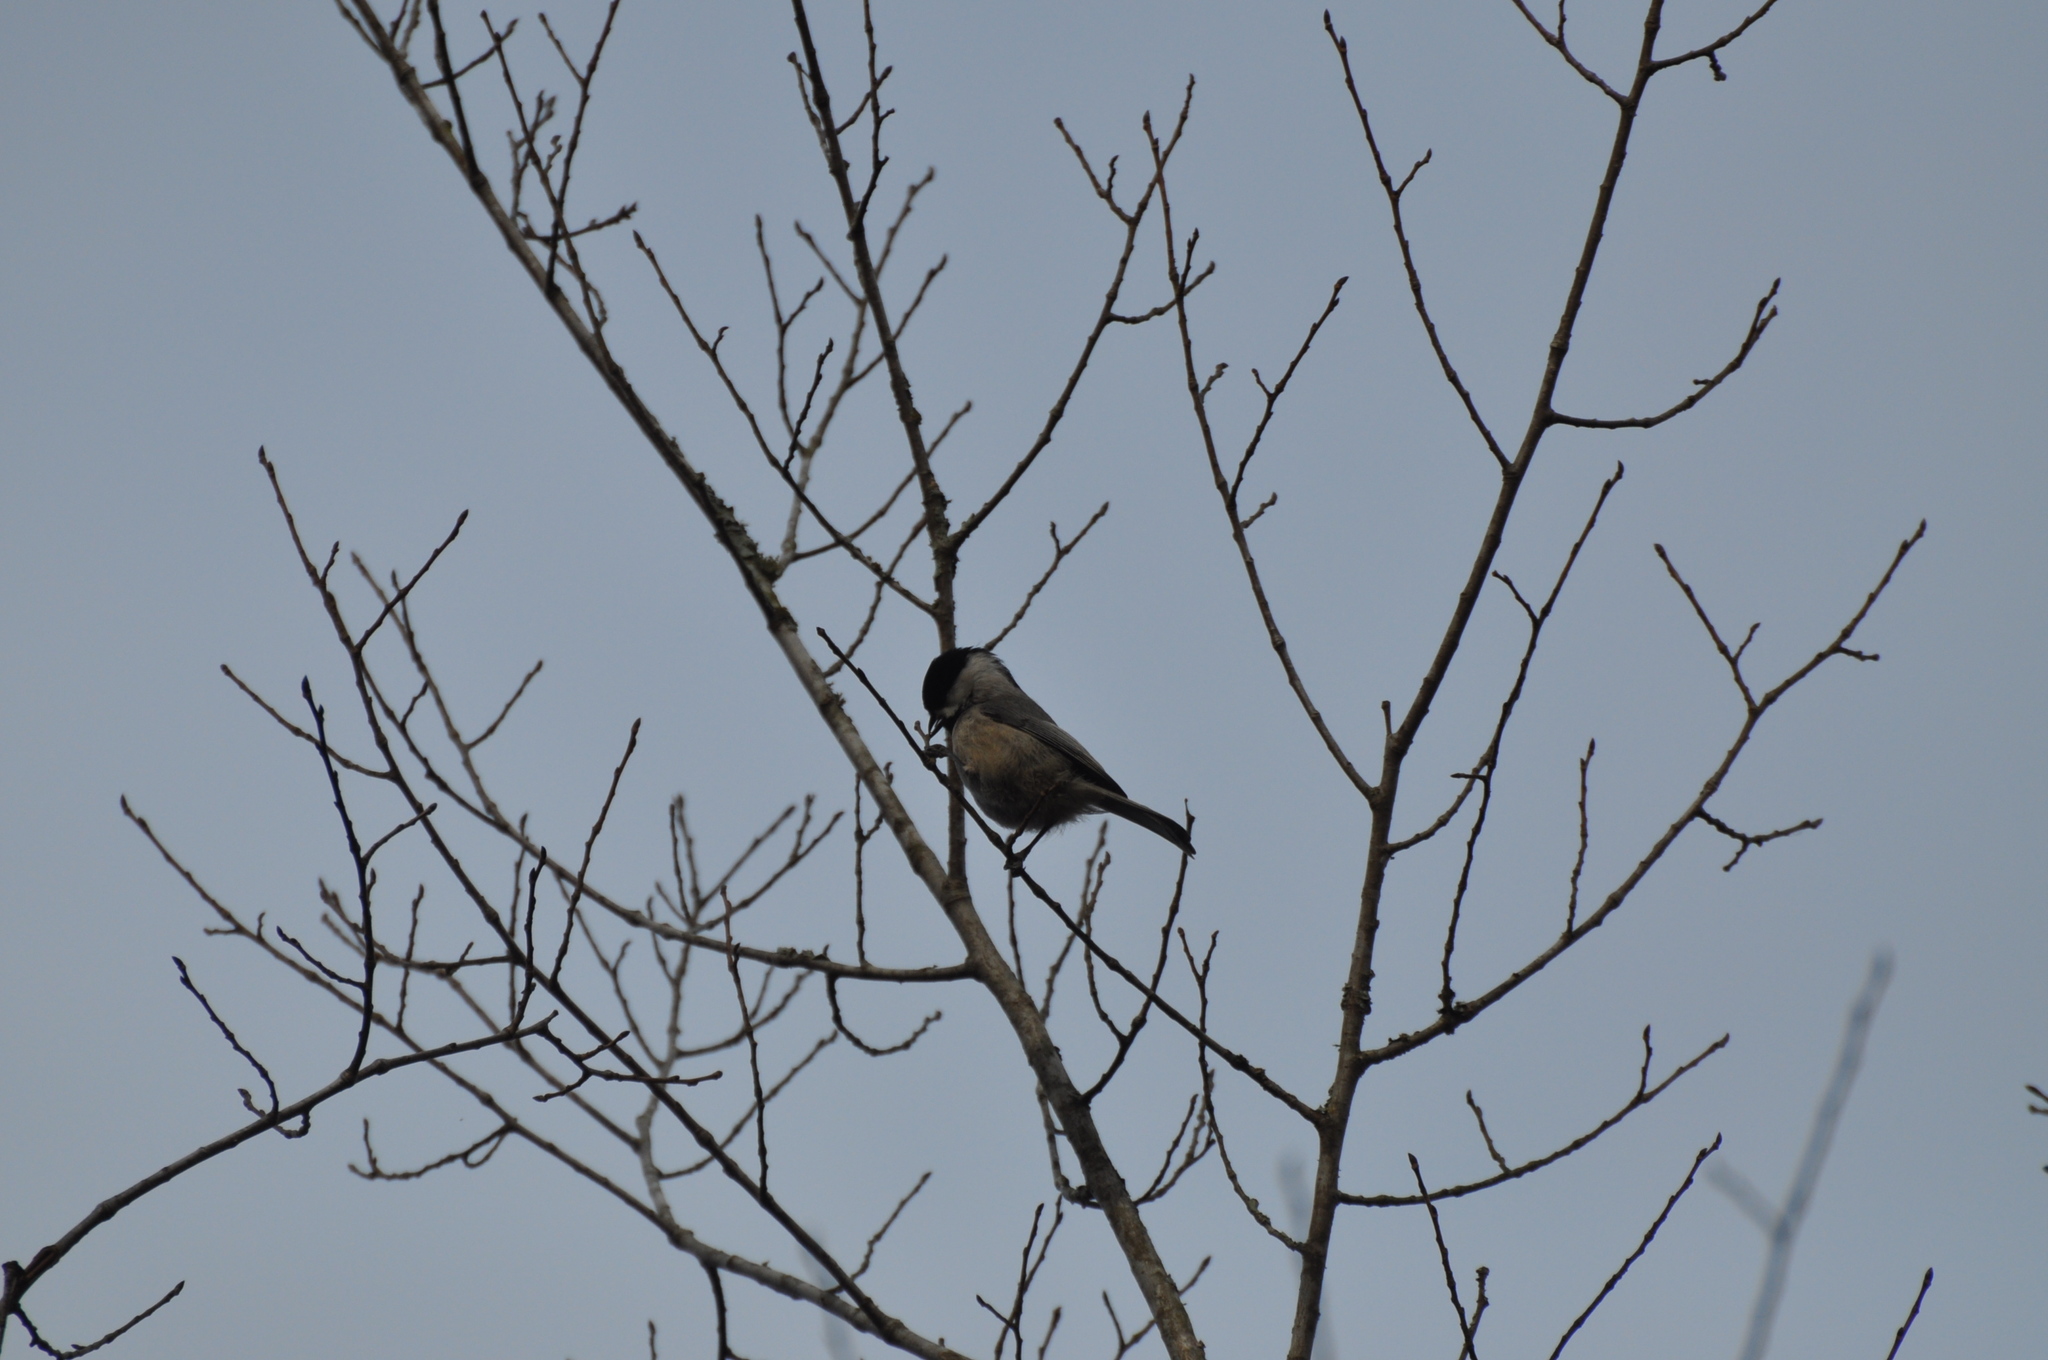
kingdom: Animalia
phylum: Chordata
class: Aves
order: Passeriformes
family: Paridae
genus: Poecile
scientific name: Poecile carolinensis
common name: Carolina chickadee
